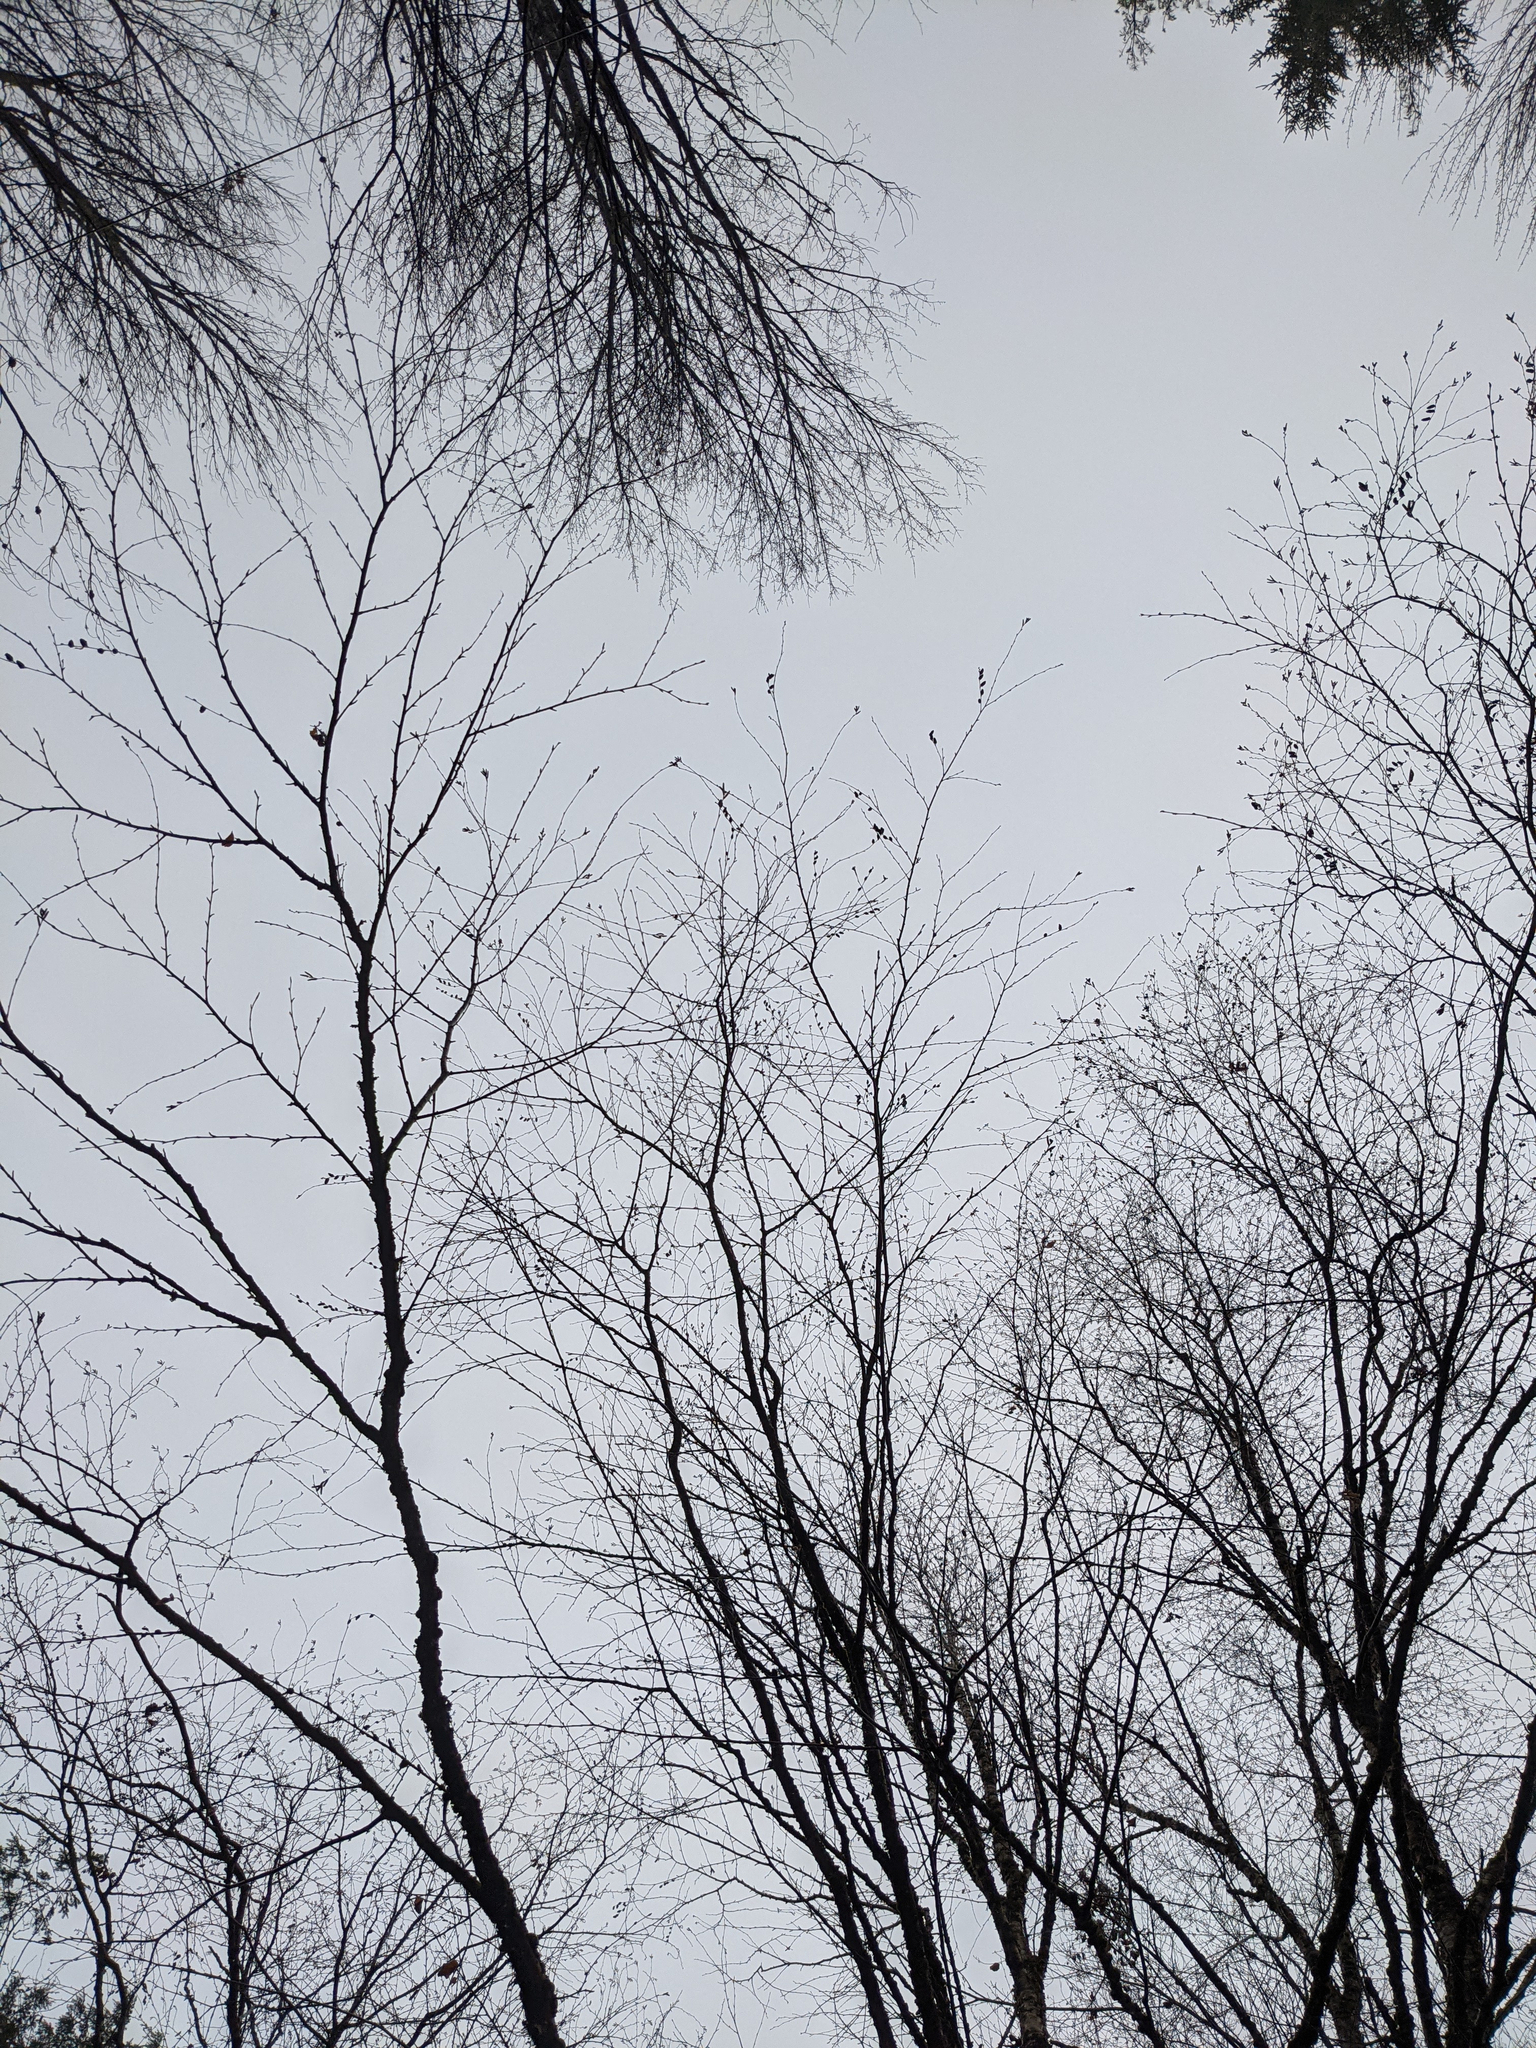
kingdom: Plantae
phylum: Tracheophyta
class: Magnoliopsida
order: Fagales
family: Betulaceae
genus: Betula
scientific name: Betula alleghaniensis
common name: Yellow birch
